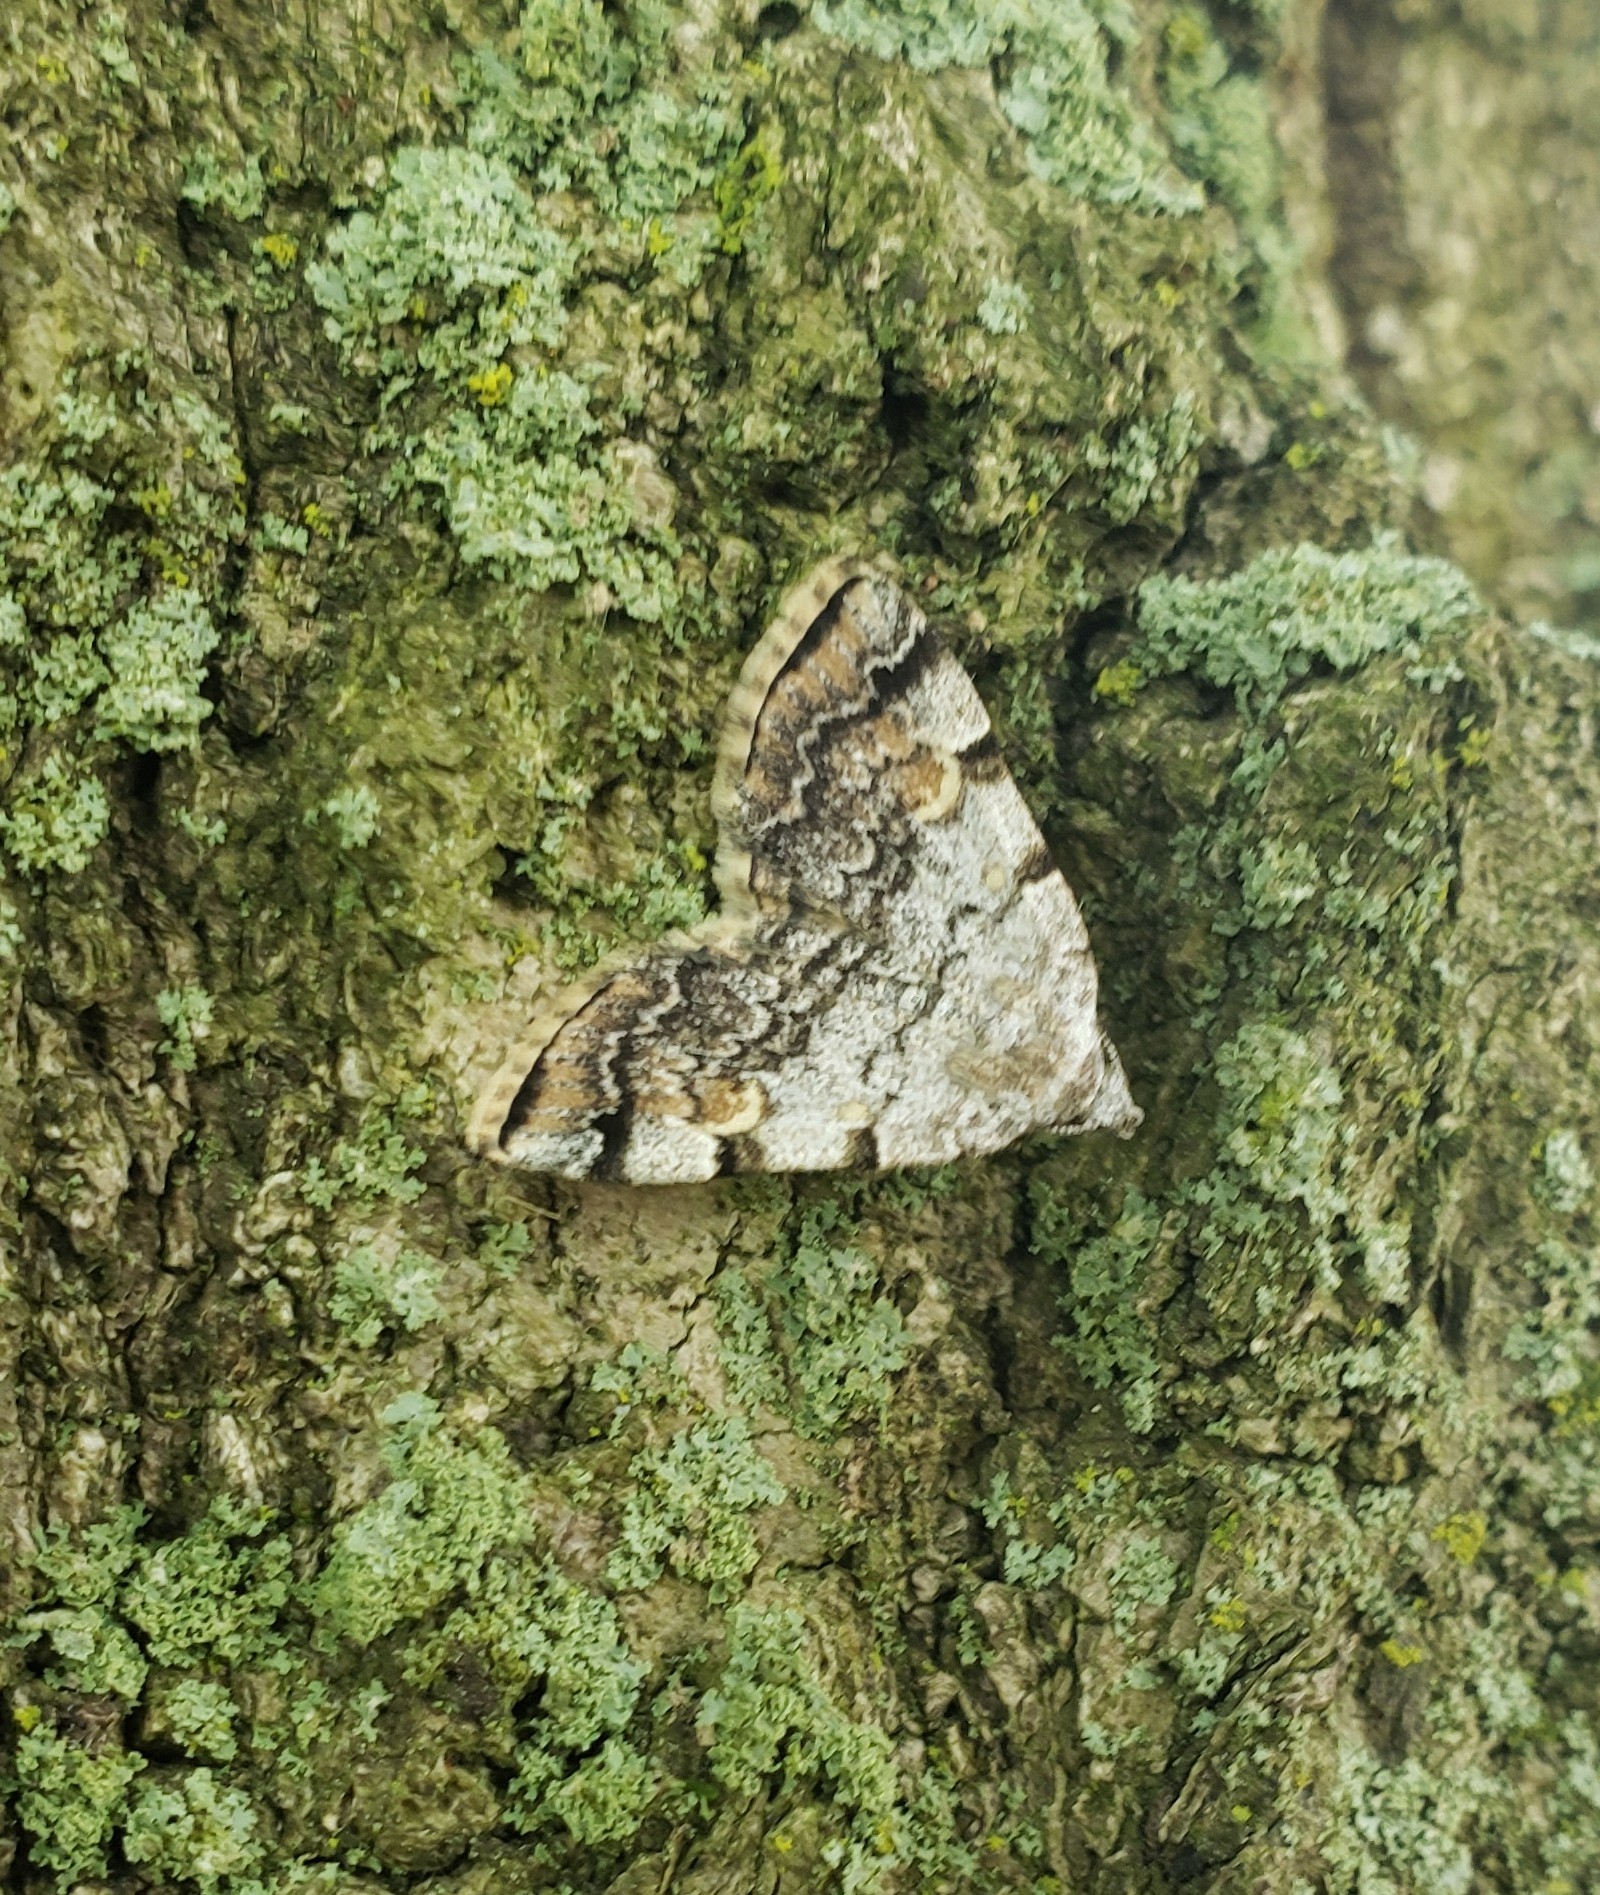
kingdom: Animalia
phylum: Arthropoda
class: Insecta
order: Lepidoptera
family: Erebidae
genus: Idia
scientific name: Idia americalis
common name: American idia moth
